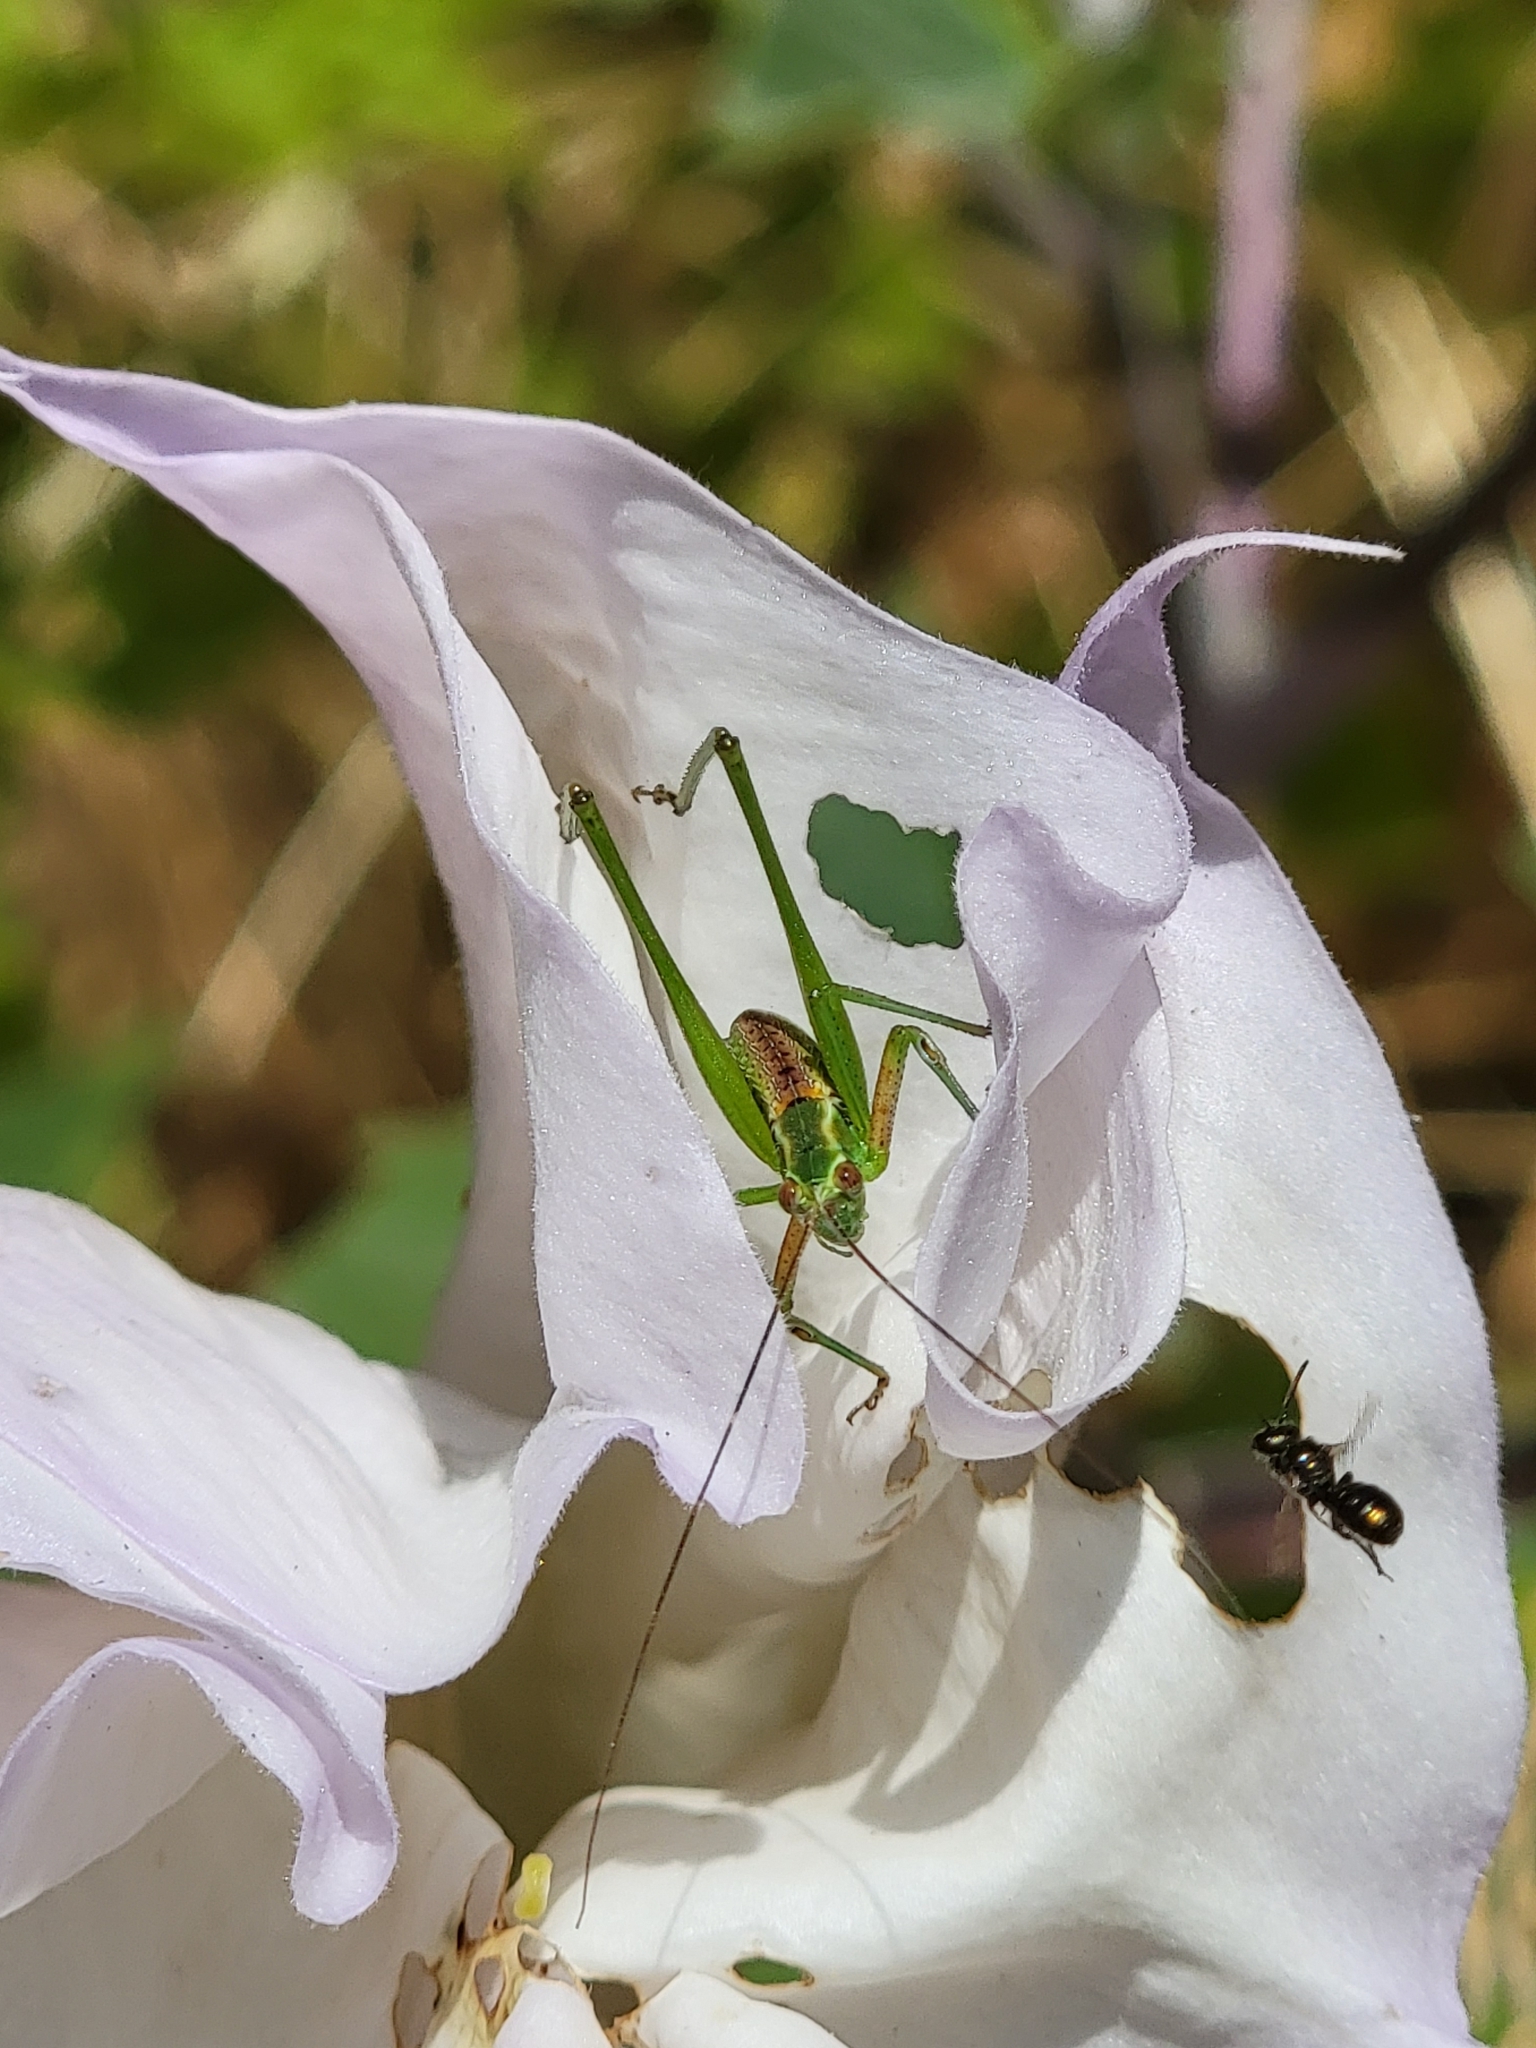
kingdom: Animalia
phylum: Arthropoda
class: Insecta
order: Orthoptera
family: Tettigoniidae
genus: Scudderia
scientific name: Scudderia
